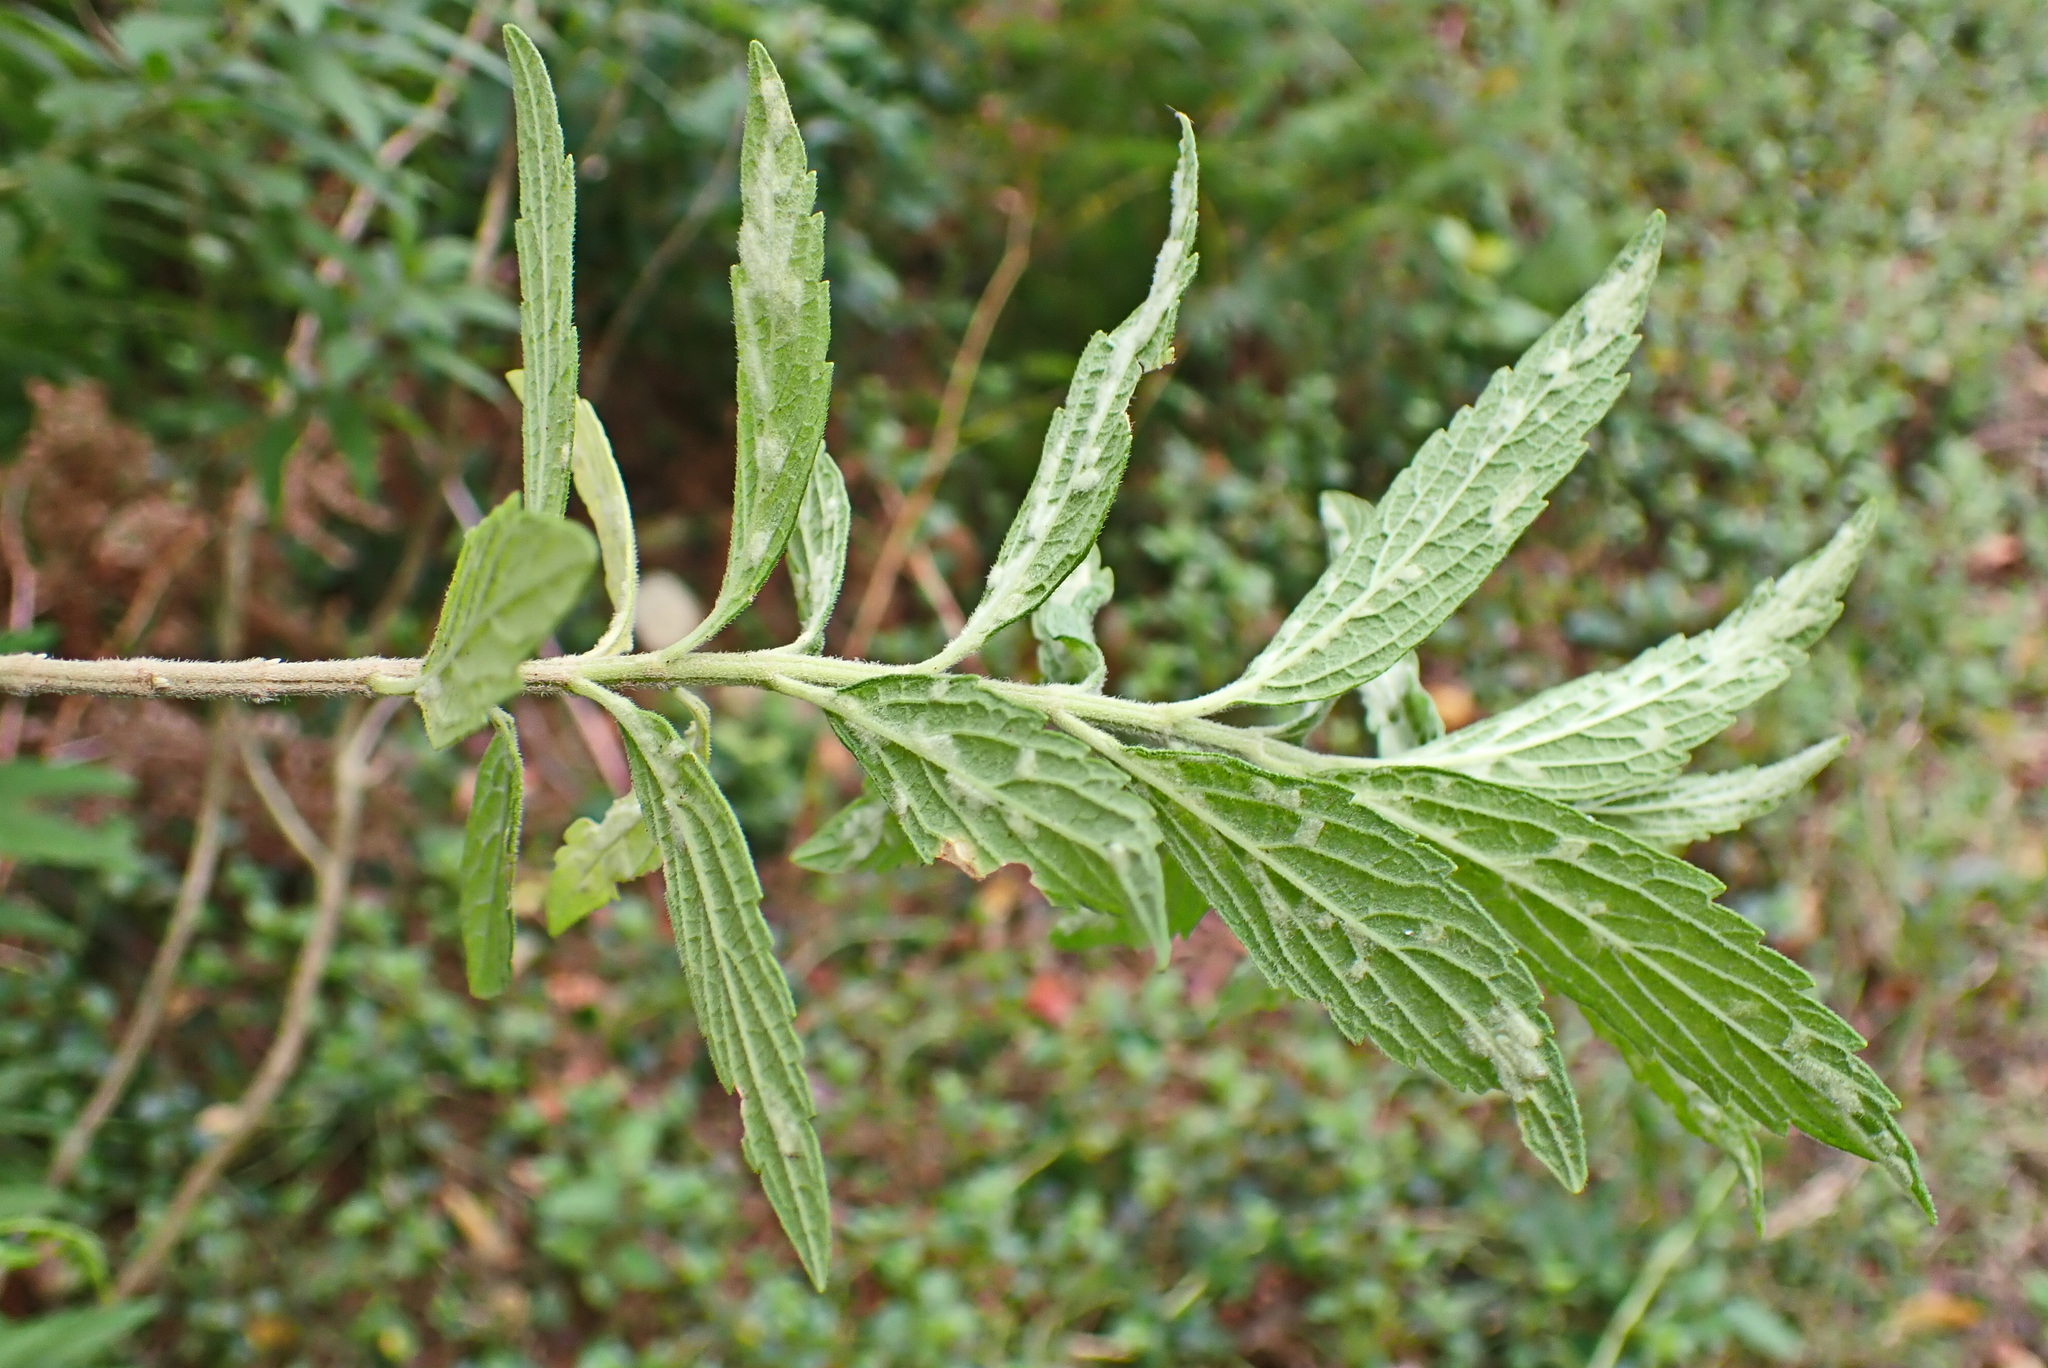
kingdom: Plantae
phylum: Tracheophyta
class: Magnoliopsida
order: Lamiales
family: Lamiaceae
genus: Leonotis
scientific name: Leonotis leonurus
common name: Lion's ear
